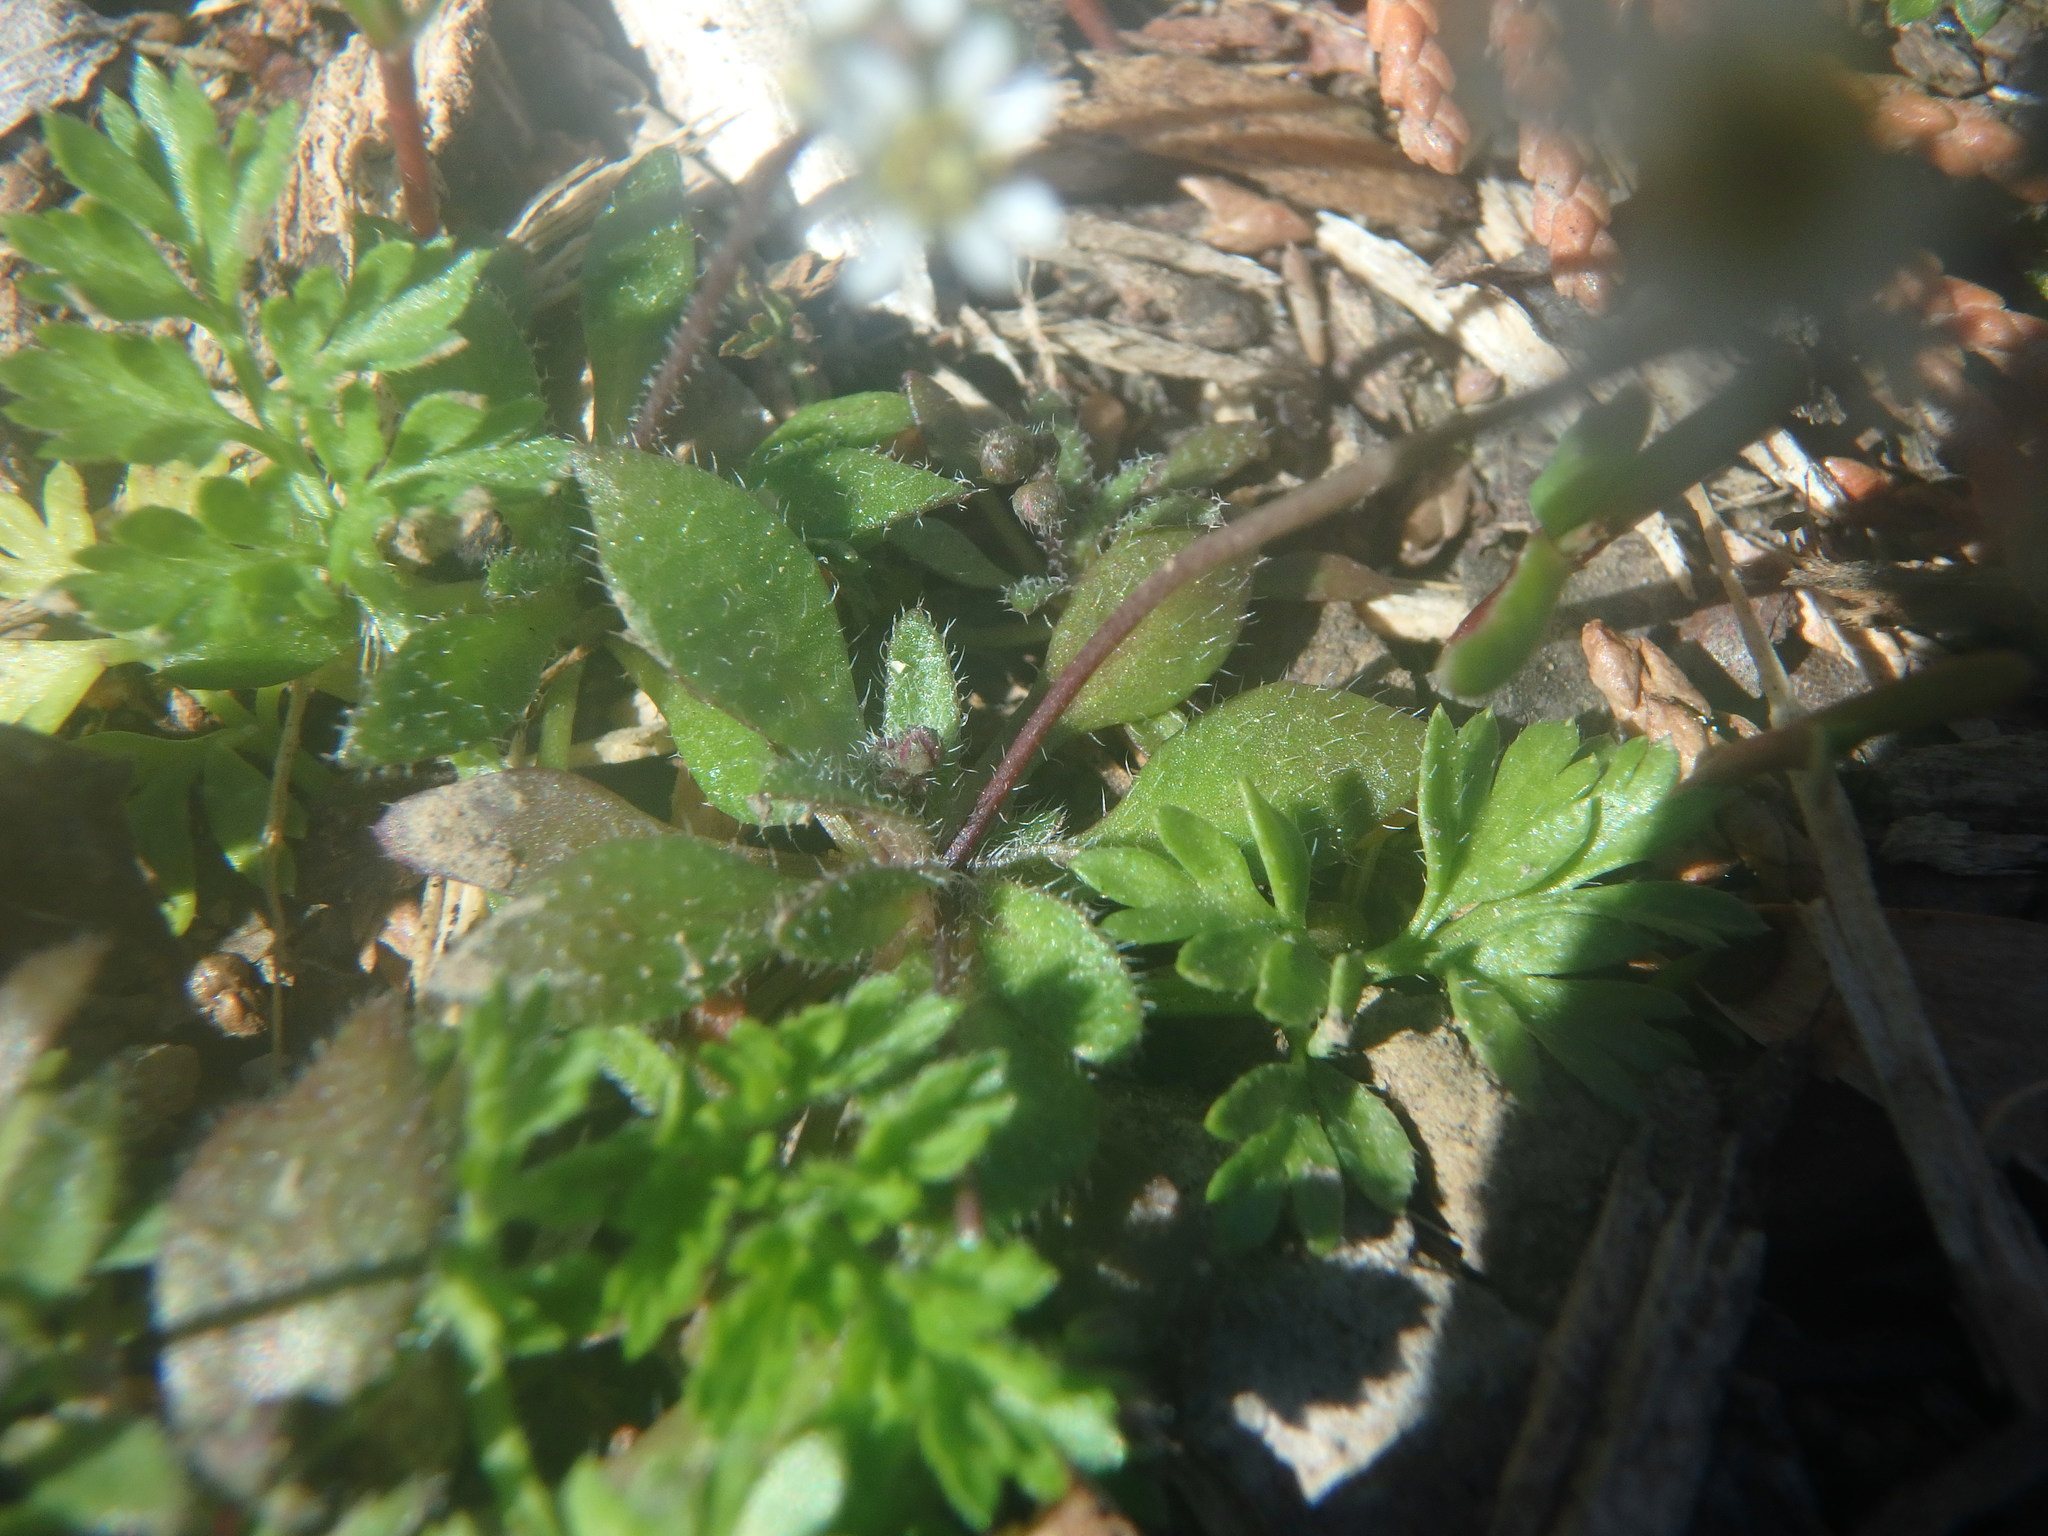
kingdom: Plantae
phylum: Tracheophyta
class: Magnoliopsida
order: Brassicales
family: Brassicaceae
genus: Draba
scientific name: Draba verna
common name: Spring draba
